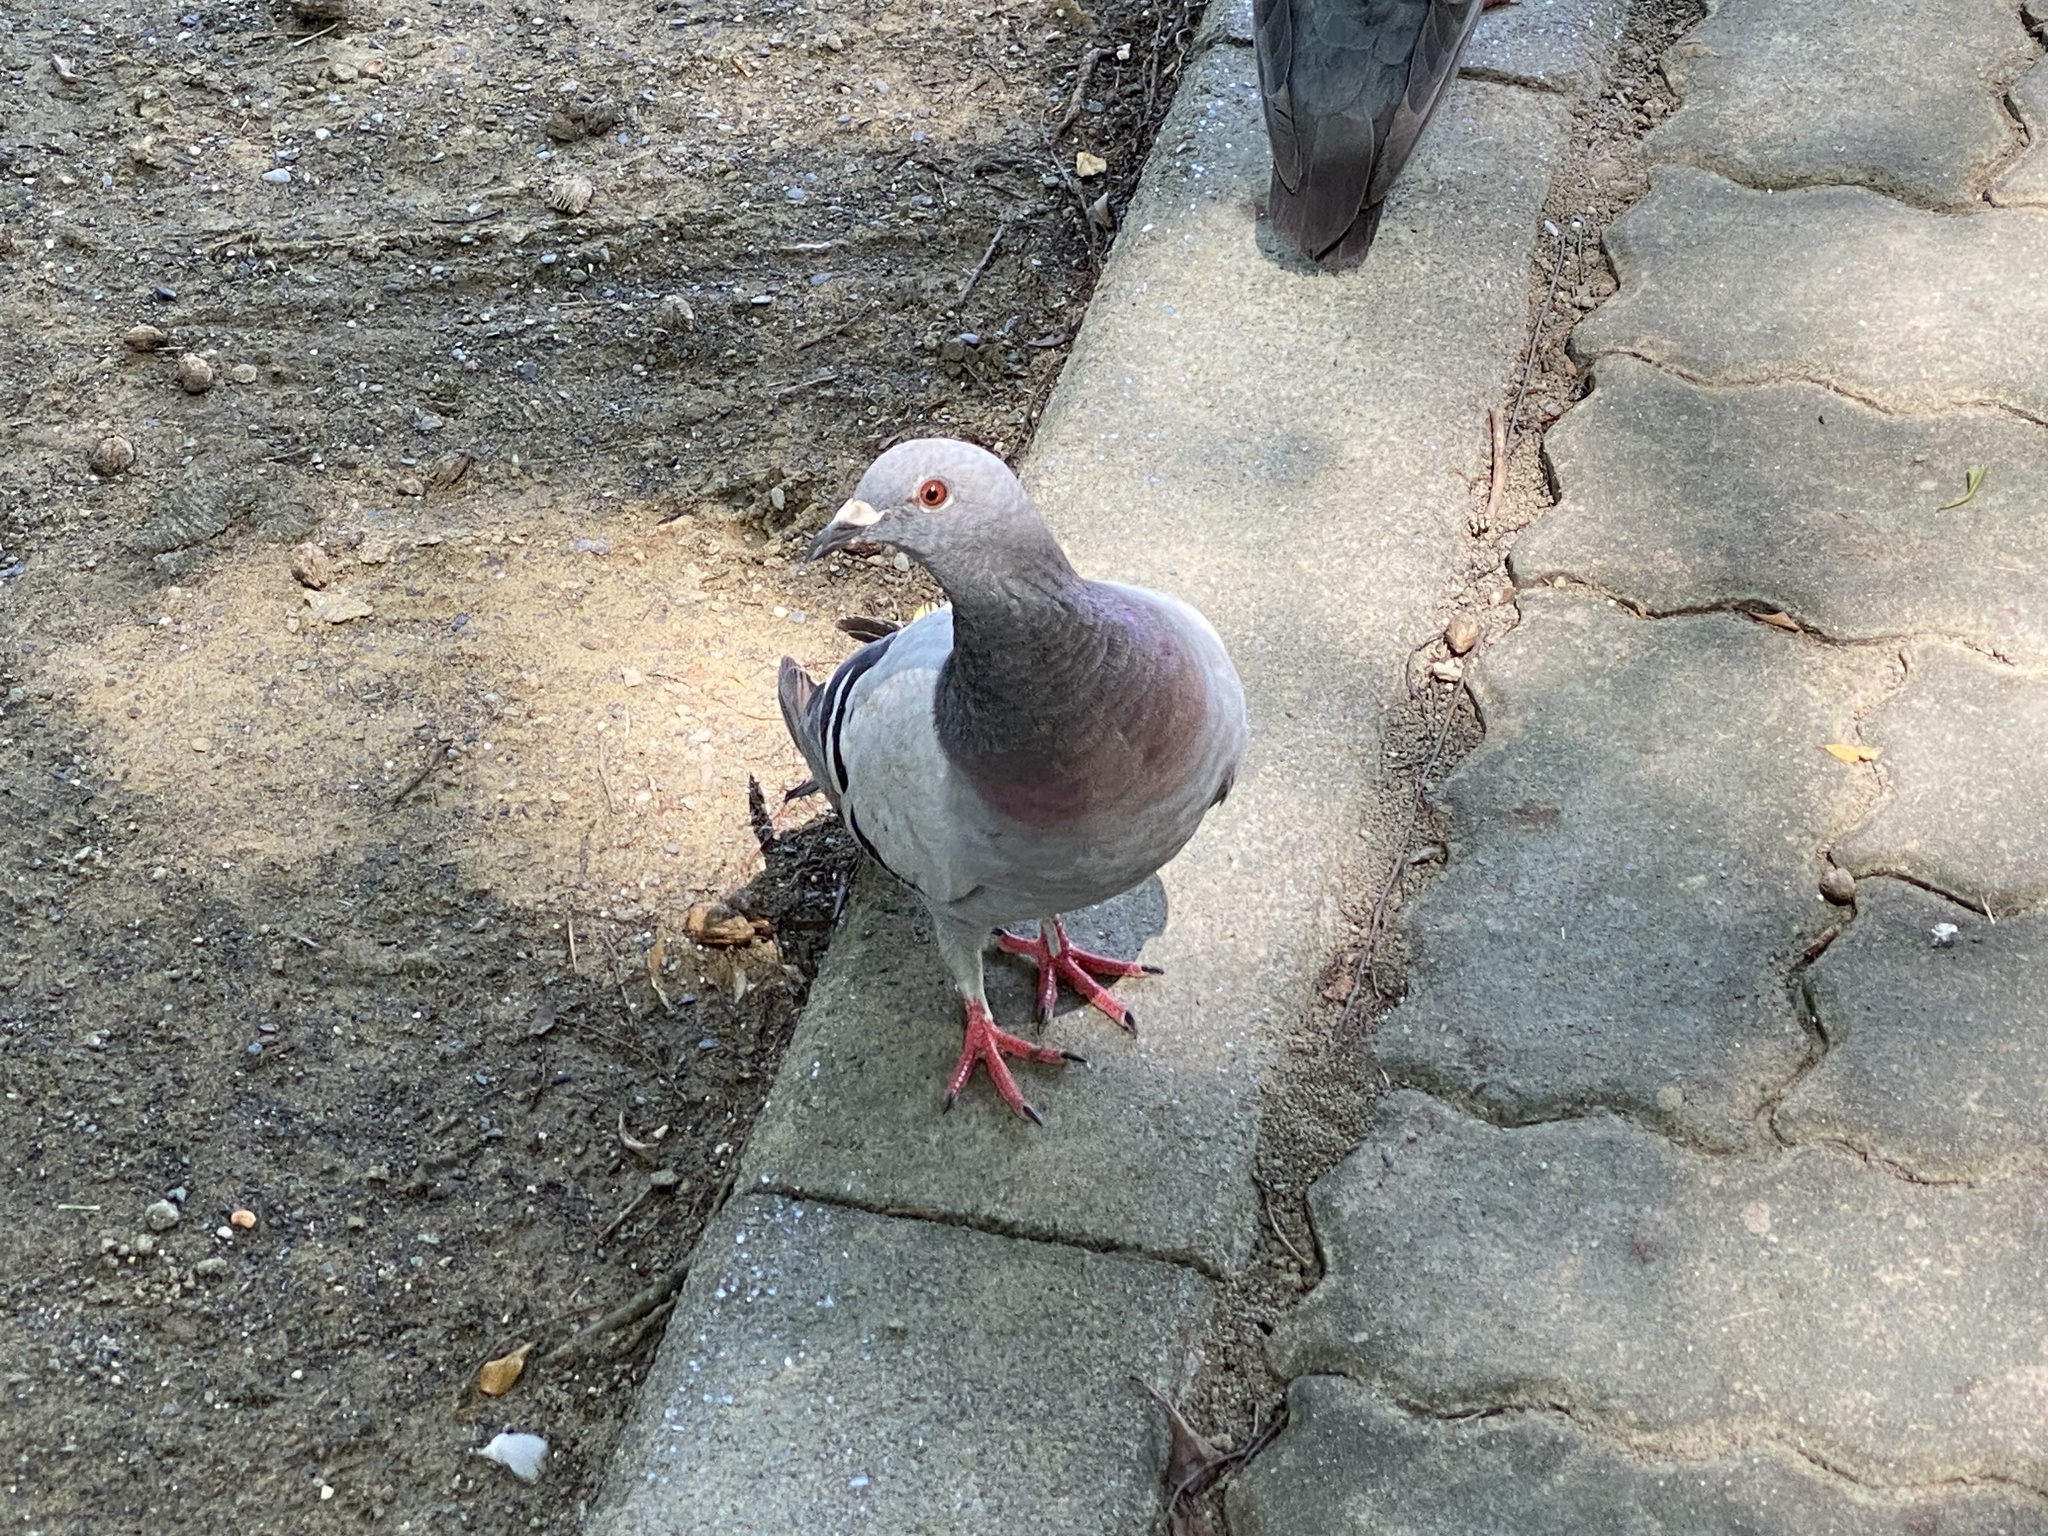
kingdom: Animalia
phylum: Chordata
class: Aves
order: Columbiformes
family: Columbidae
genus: Columba
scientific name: Columba livia
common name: Rock pigeon
